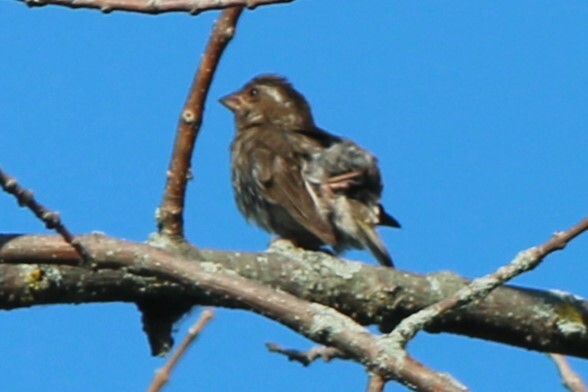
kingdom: Animalia
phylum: Chordata
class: Aves
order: Passeriformes
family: Fringillidae
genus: Haemorhous
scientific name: Haemorhous purpureus
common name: Purple finch
